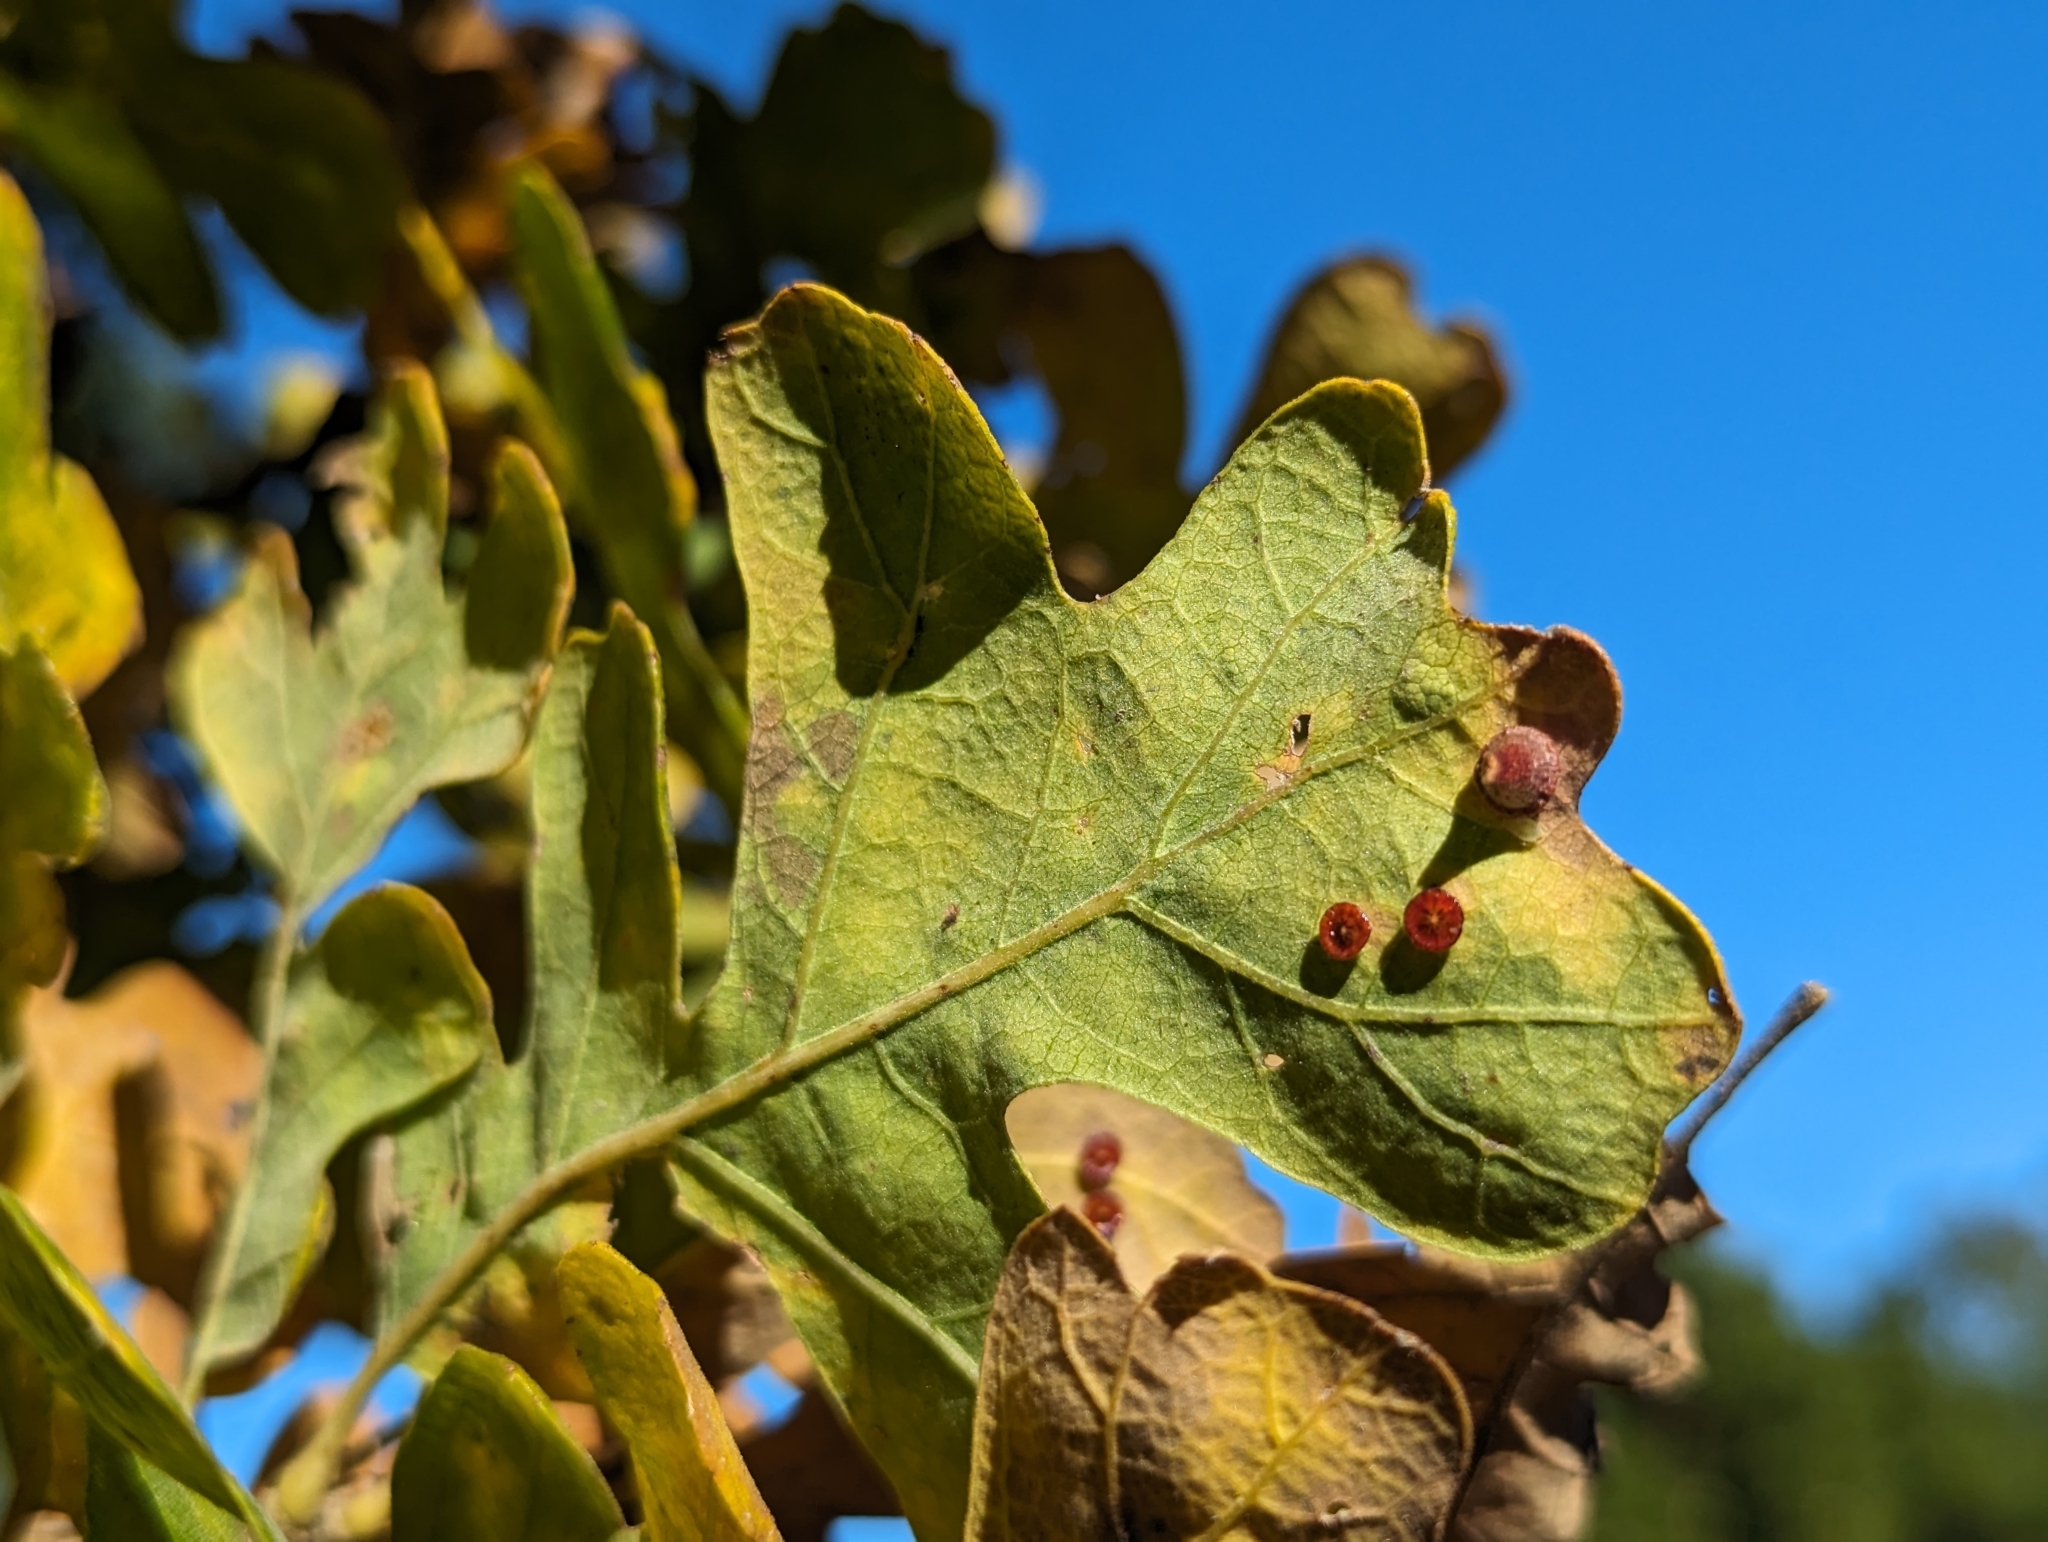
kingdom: Animalia
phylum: Arthropoda
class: Insecta
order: Hymenoptera
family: Cynipidae
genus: Andricus
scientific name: Andricus
